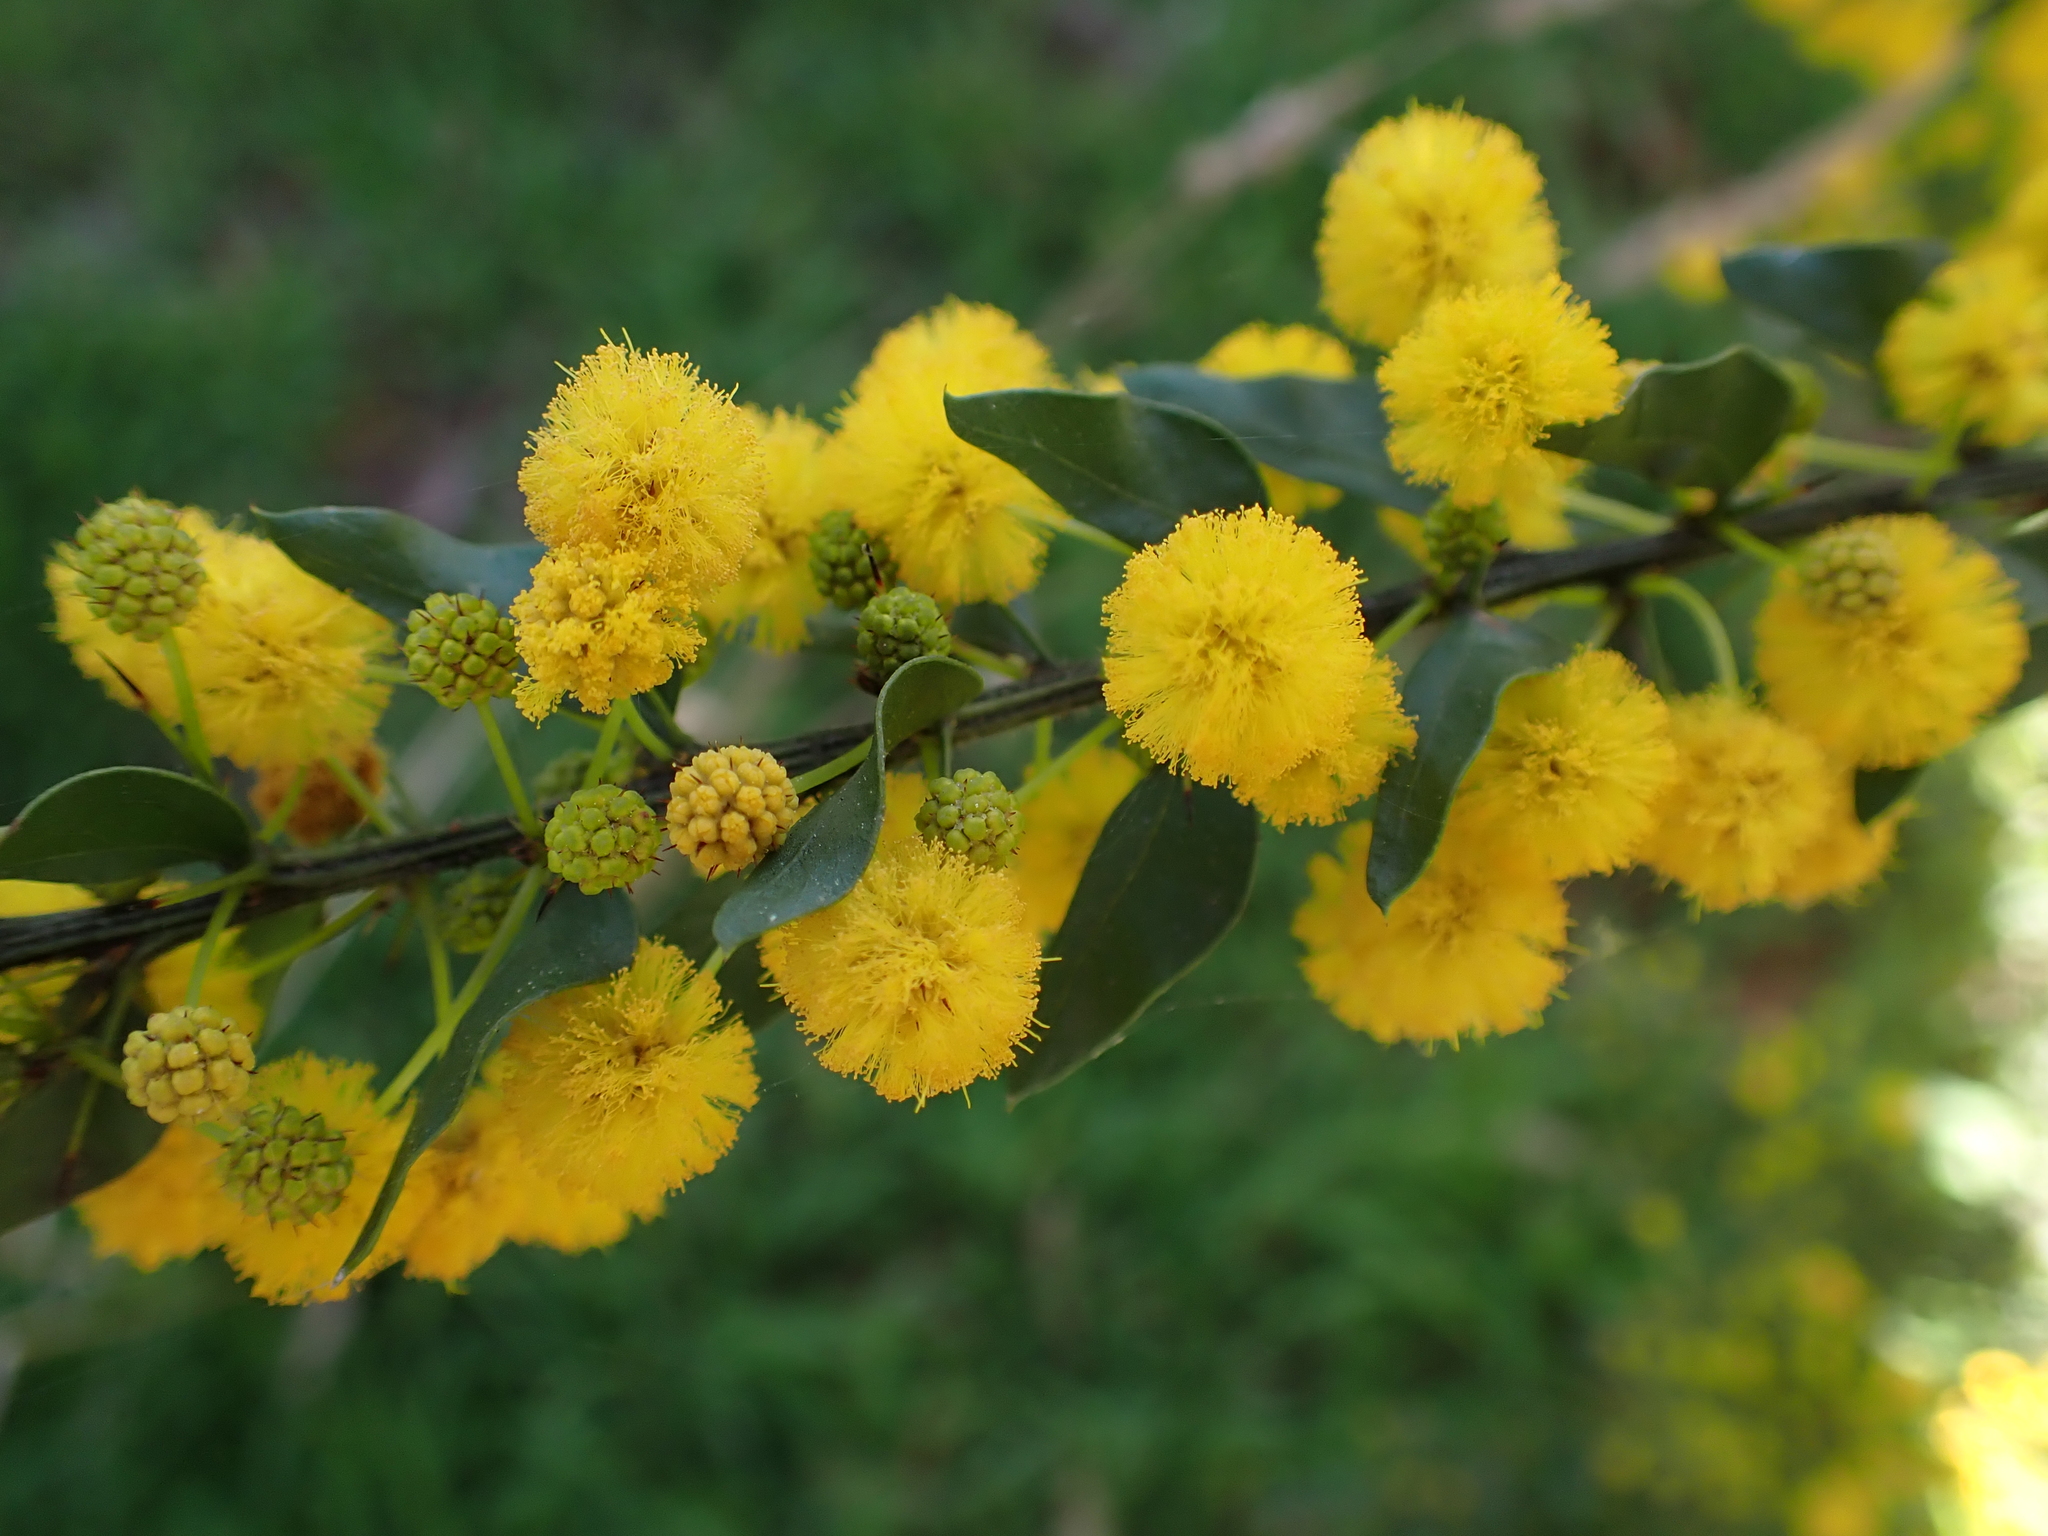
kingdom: Plantae
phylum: Tracheophyta
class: Magnoliopsida
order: Fabales
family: Fabaceae
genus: Acacia
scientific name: Acacia paradoxa
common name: Paradox acacia
